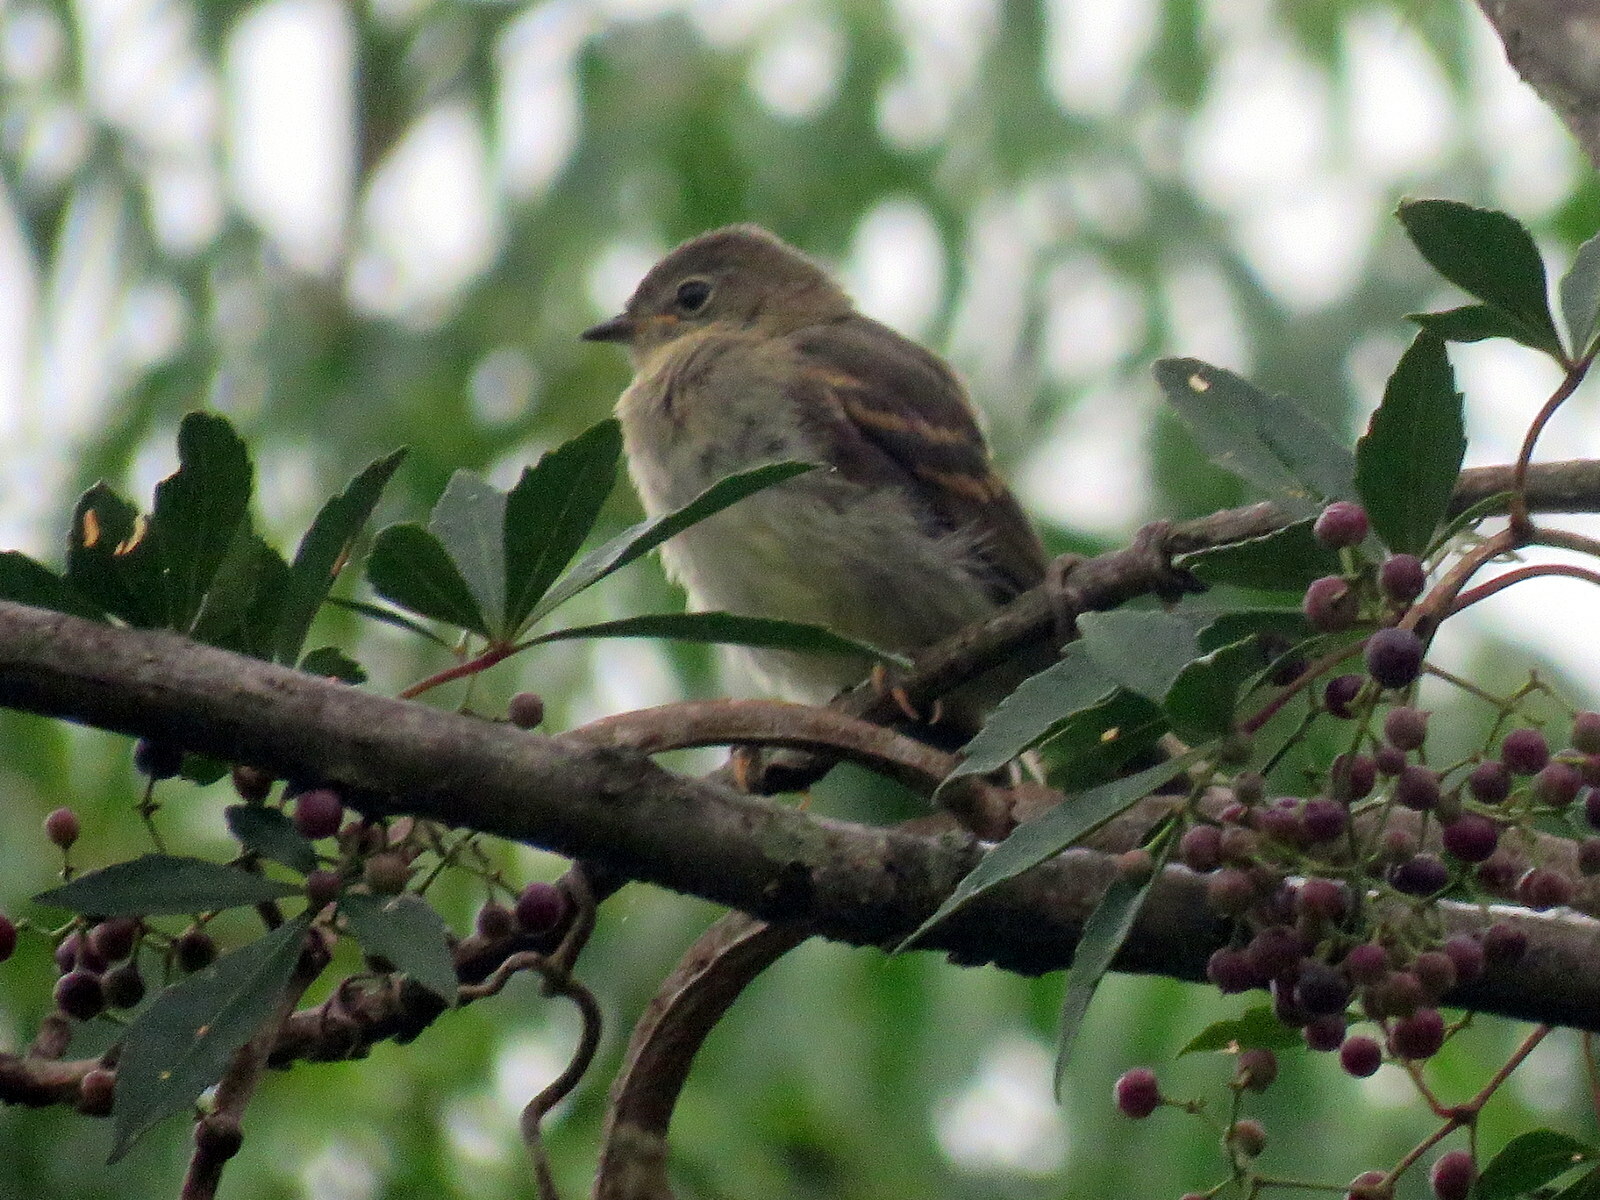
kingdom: Animalia
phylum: Chordata
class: Aves
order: Passeriformes
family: Tyrannidae
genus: Elaenia
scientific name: Elaenia obscura
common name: Highland elaenia
